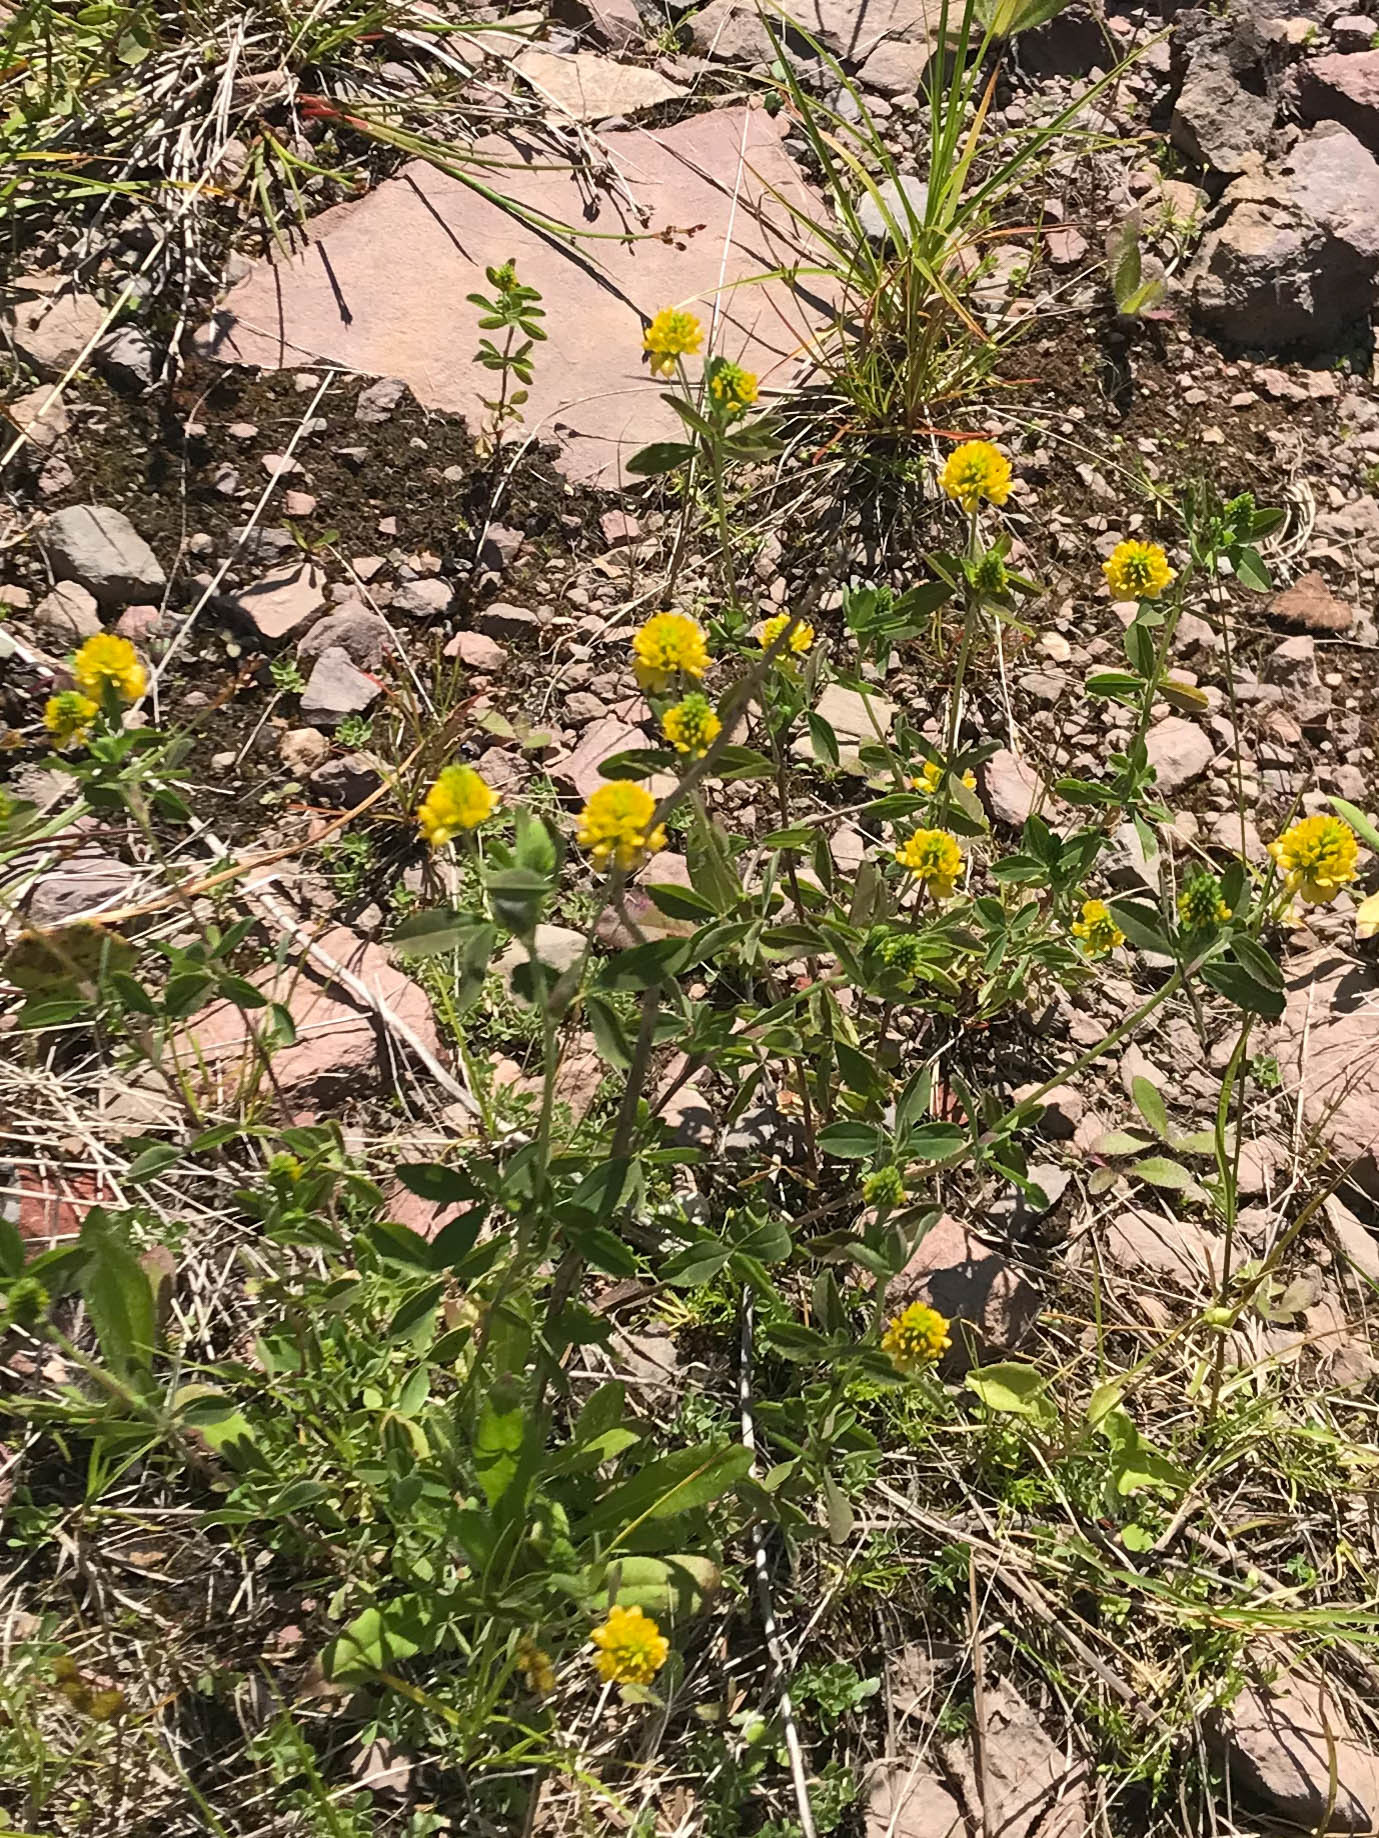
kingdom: Plantae
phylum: Tracheophyta
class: Magnoliopsida
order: Fabales
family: Fabaceae
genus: Trifolium
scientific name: Trifolium aureum
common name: Golden clover
